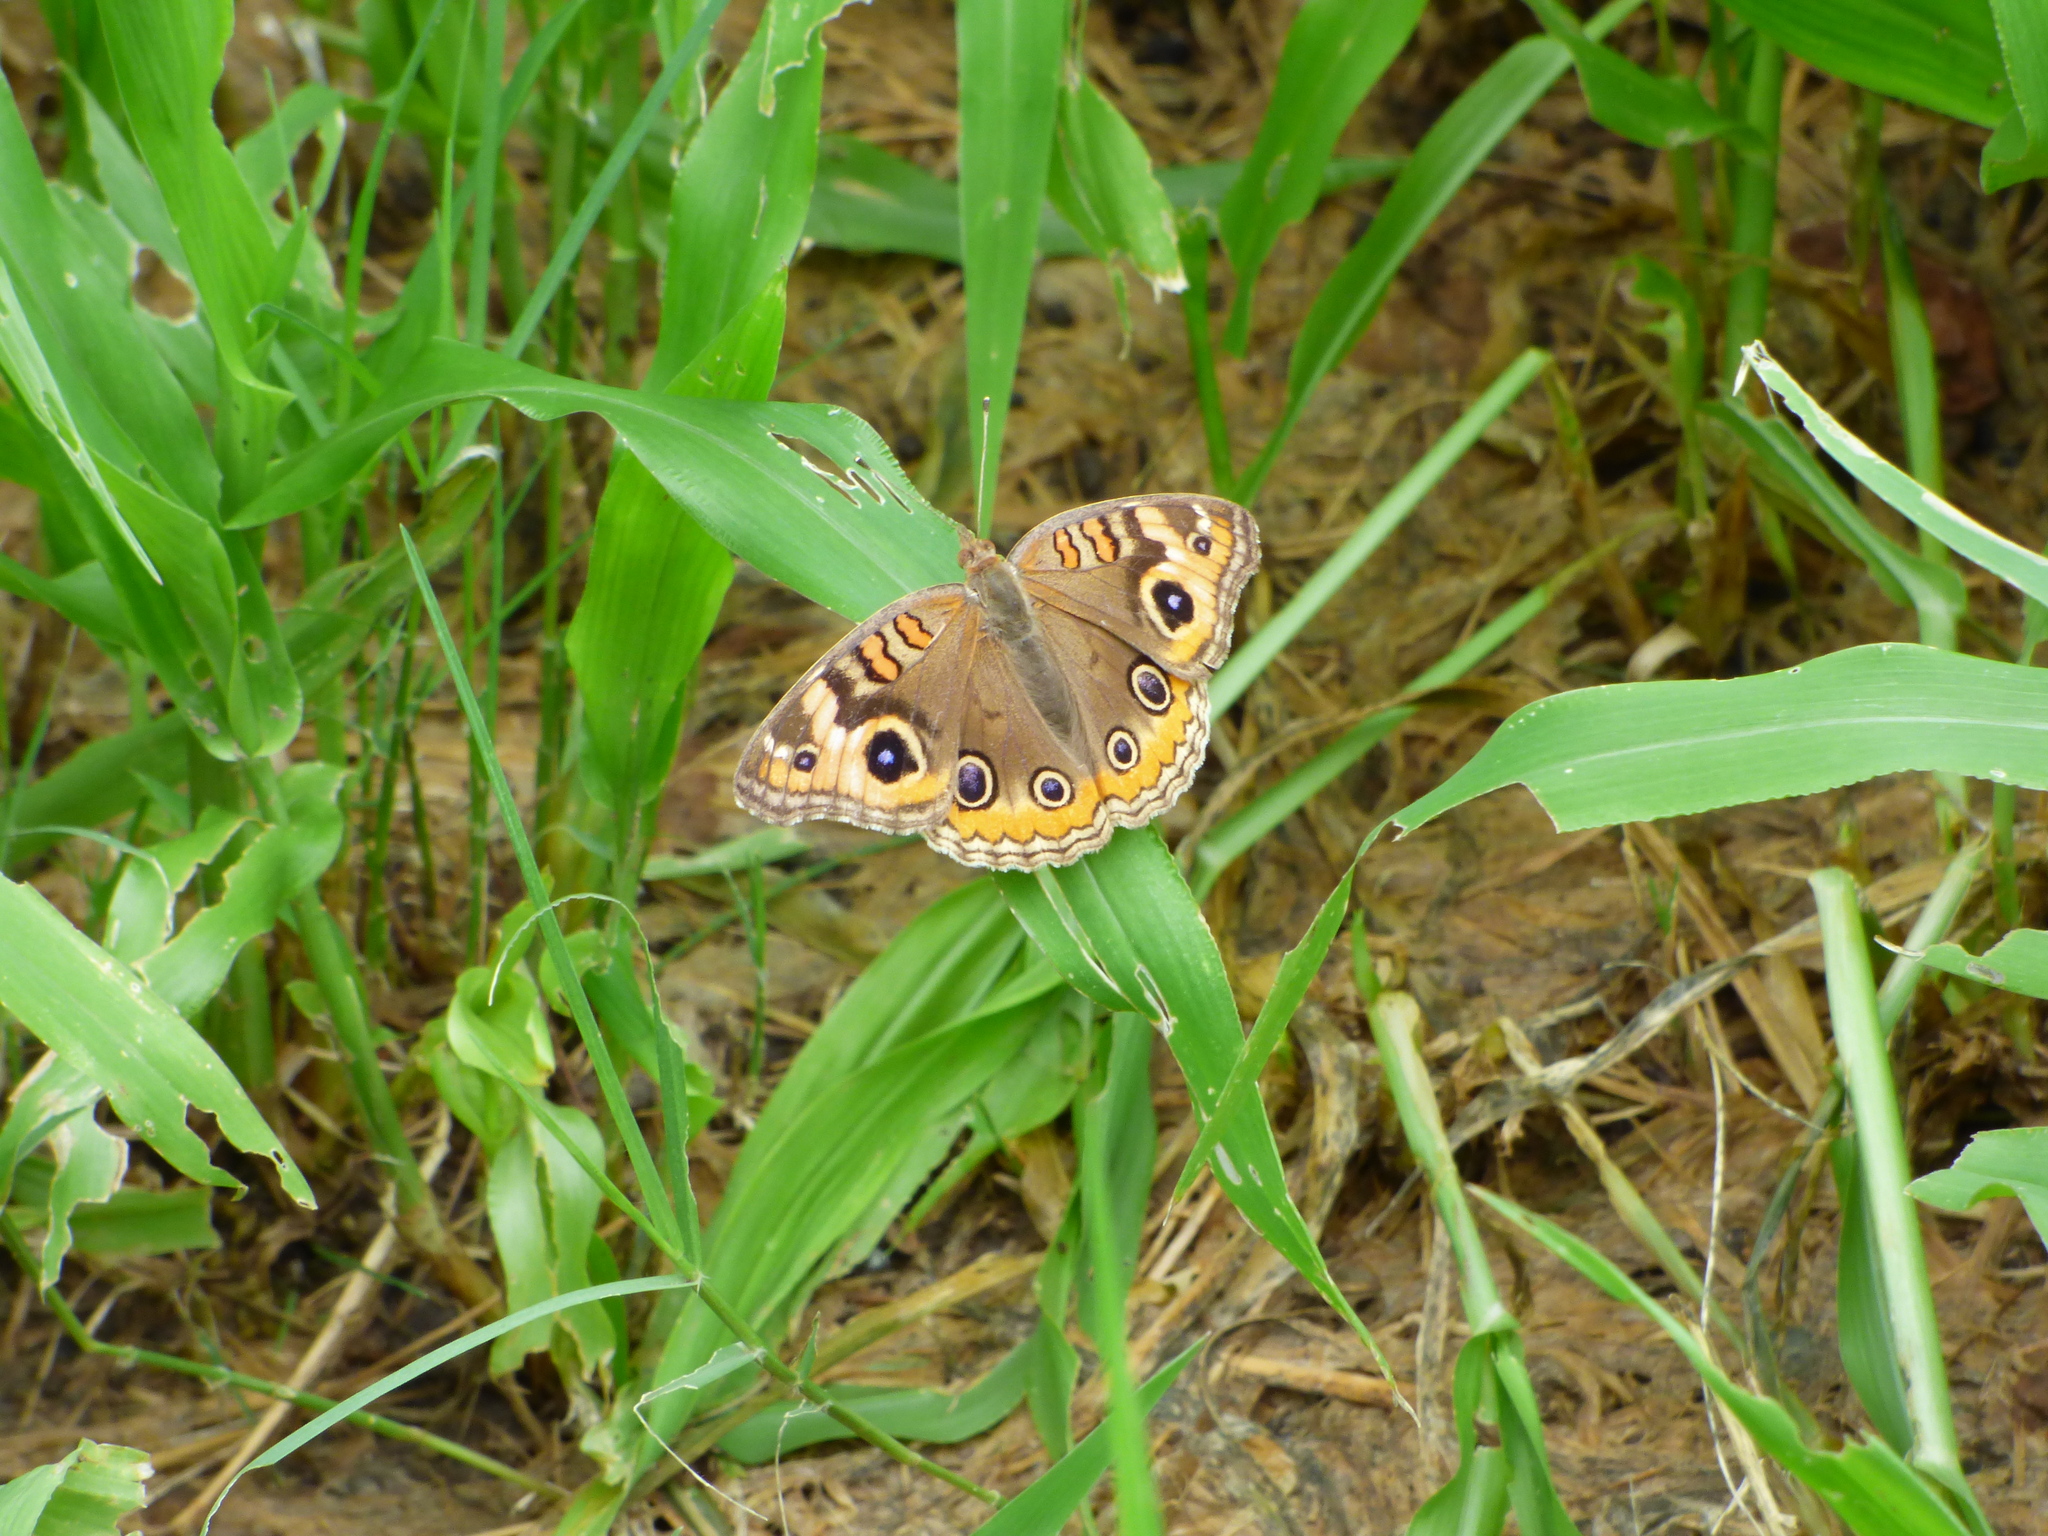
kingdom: Animalia
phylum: Arthropoda
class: Insecta
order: Lepidoptera
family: Nymphalidae
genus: Junonia
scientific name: Junonia lavinia
